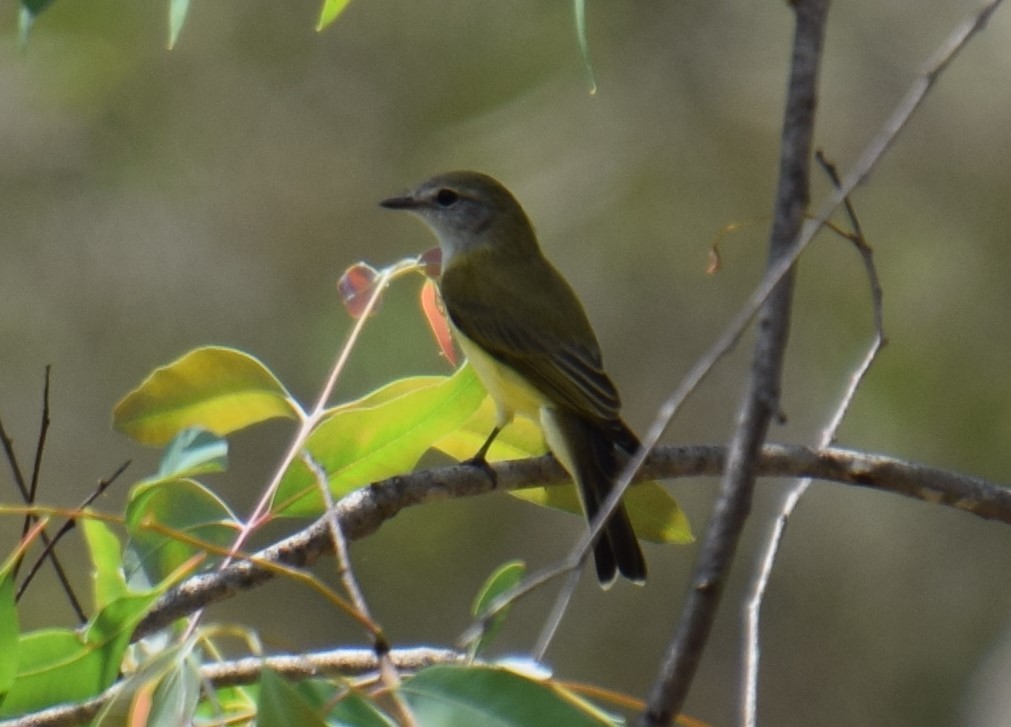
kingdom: Animalia
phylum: Chordata
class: Aves
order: Passeriformes
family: Petroicidae
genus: Microeca
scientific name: Microeca flavigaster
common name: Lemon-bellied flyrobin
